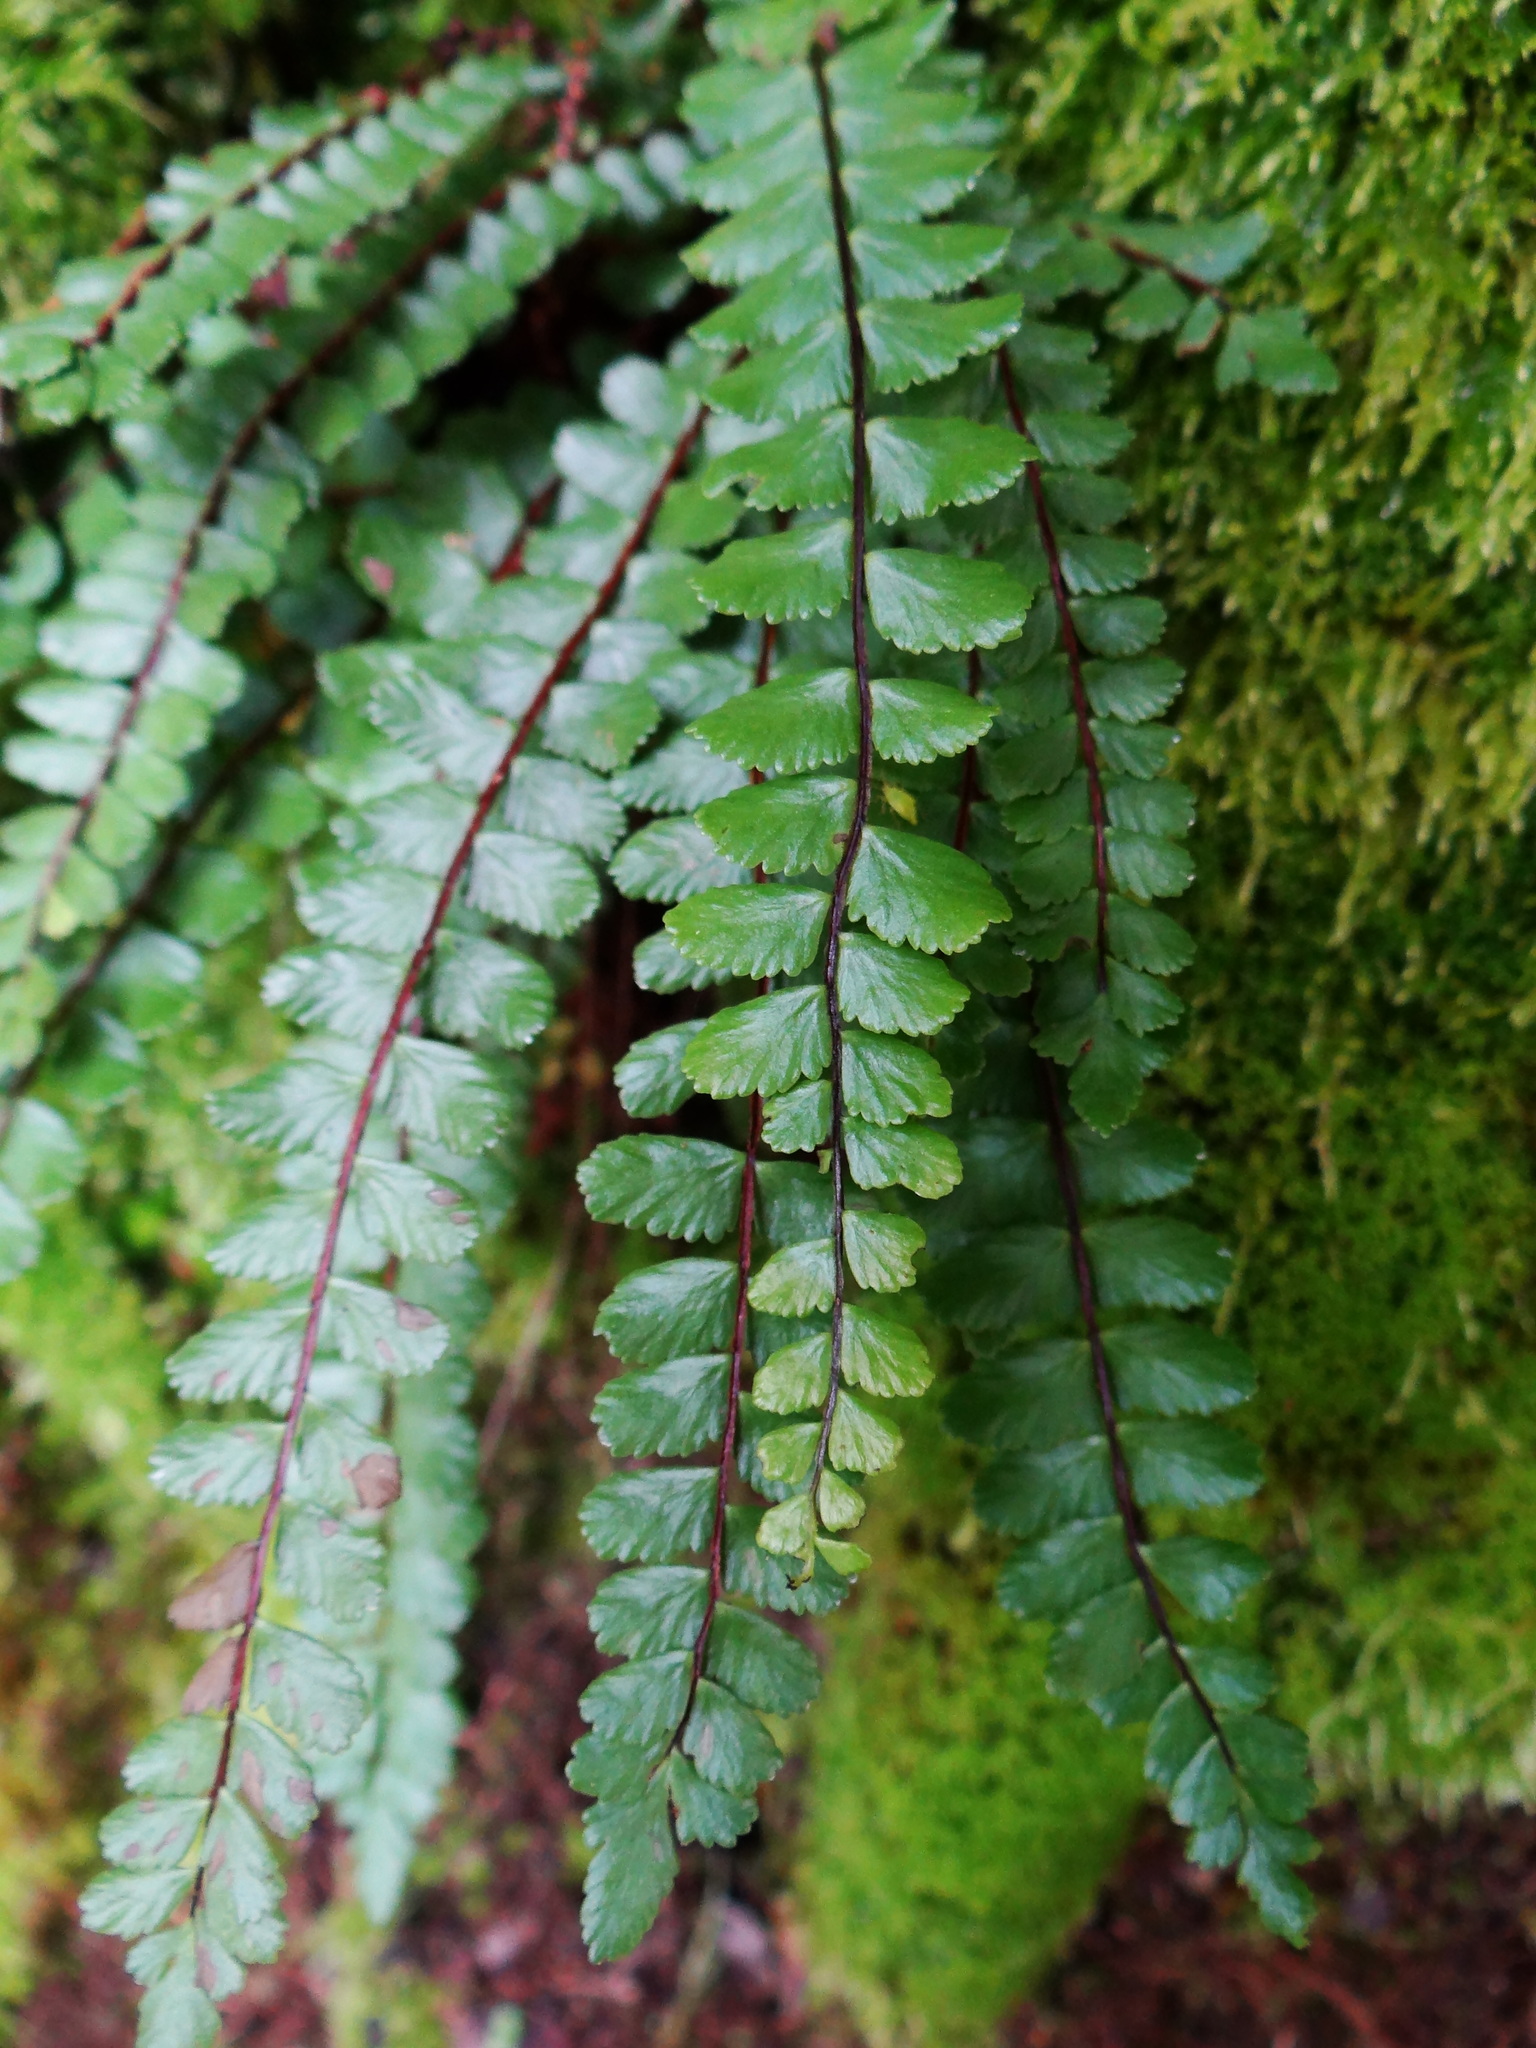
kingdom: Plantae
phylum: Tracheophyta
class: Polypodiopsida
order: Polypodiales
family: Aspleniaceae
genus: Asplenium
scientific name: Asplenium trichomanes
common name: Maidenhair spleenwort
